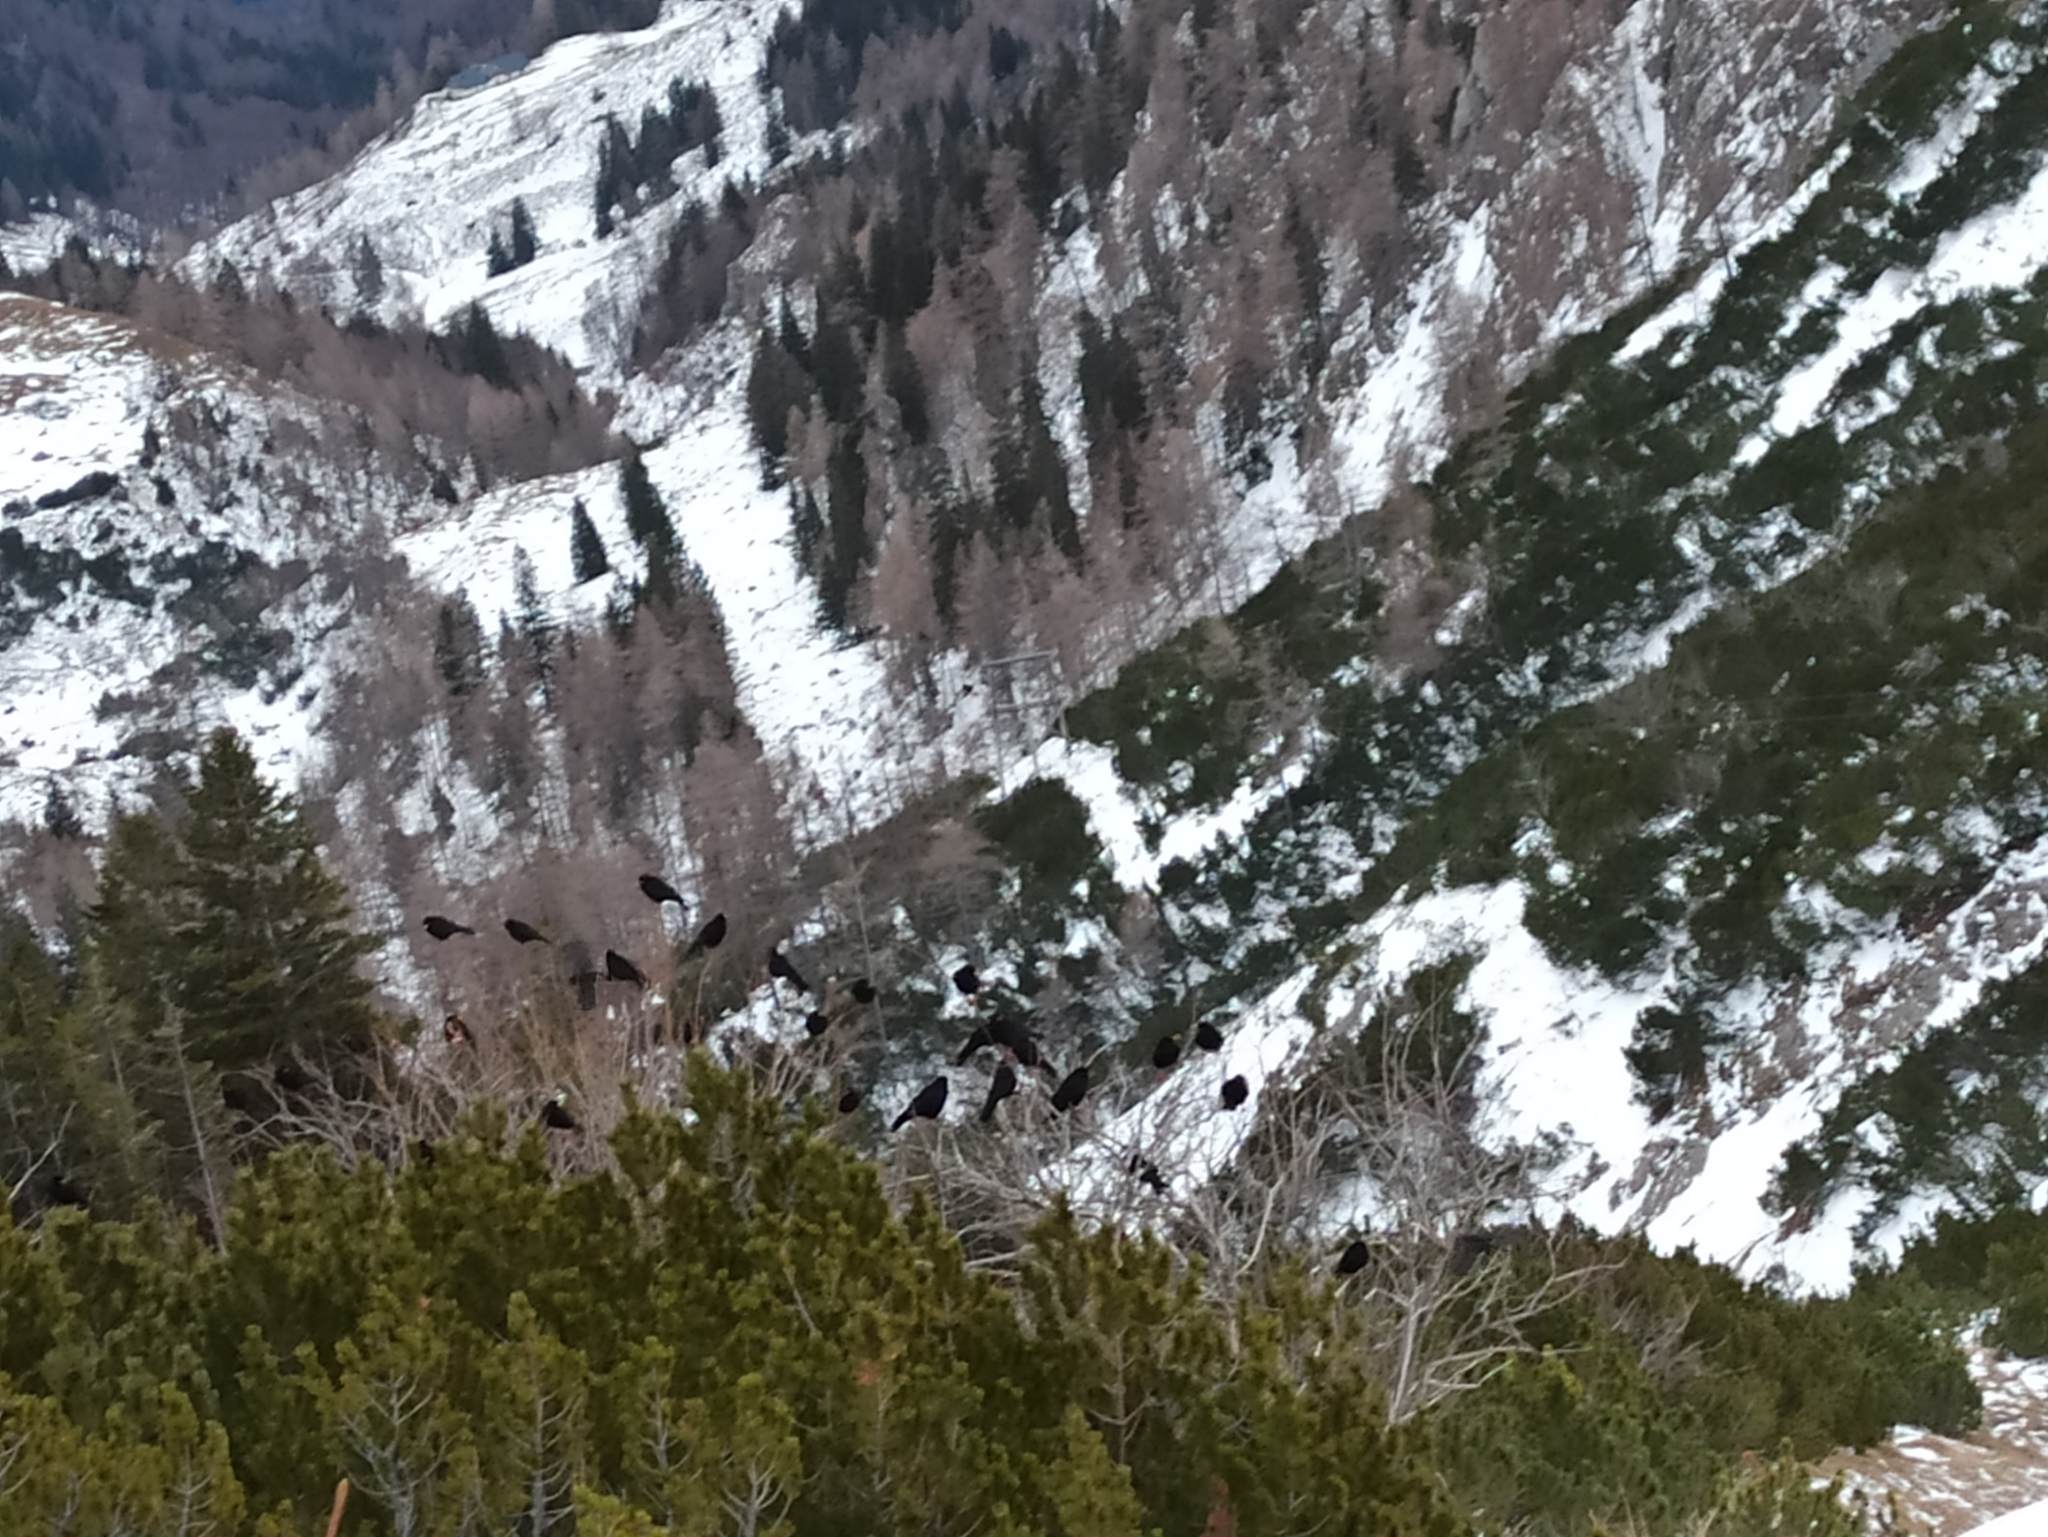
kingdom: Animalia
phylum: Chordata
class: Aves
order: Passeriformes
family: Corvidae
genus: Pyrrhocorax
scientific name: Pyrrhocorax graculus
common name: Alpine chough
